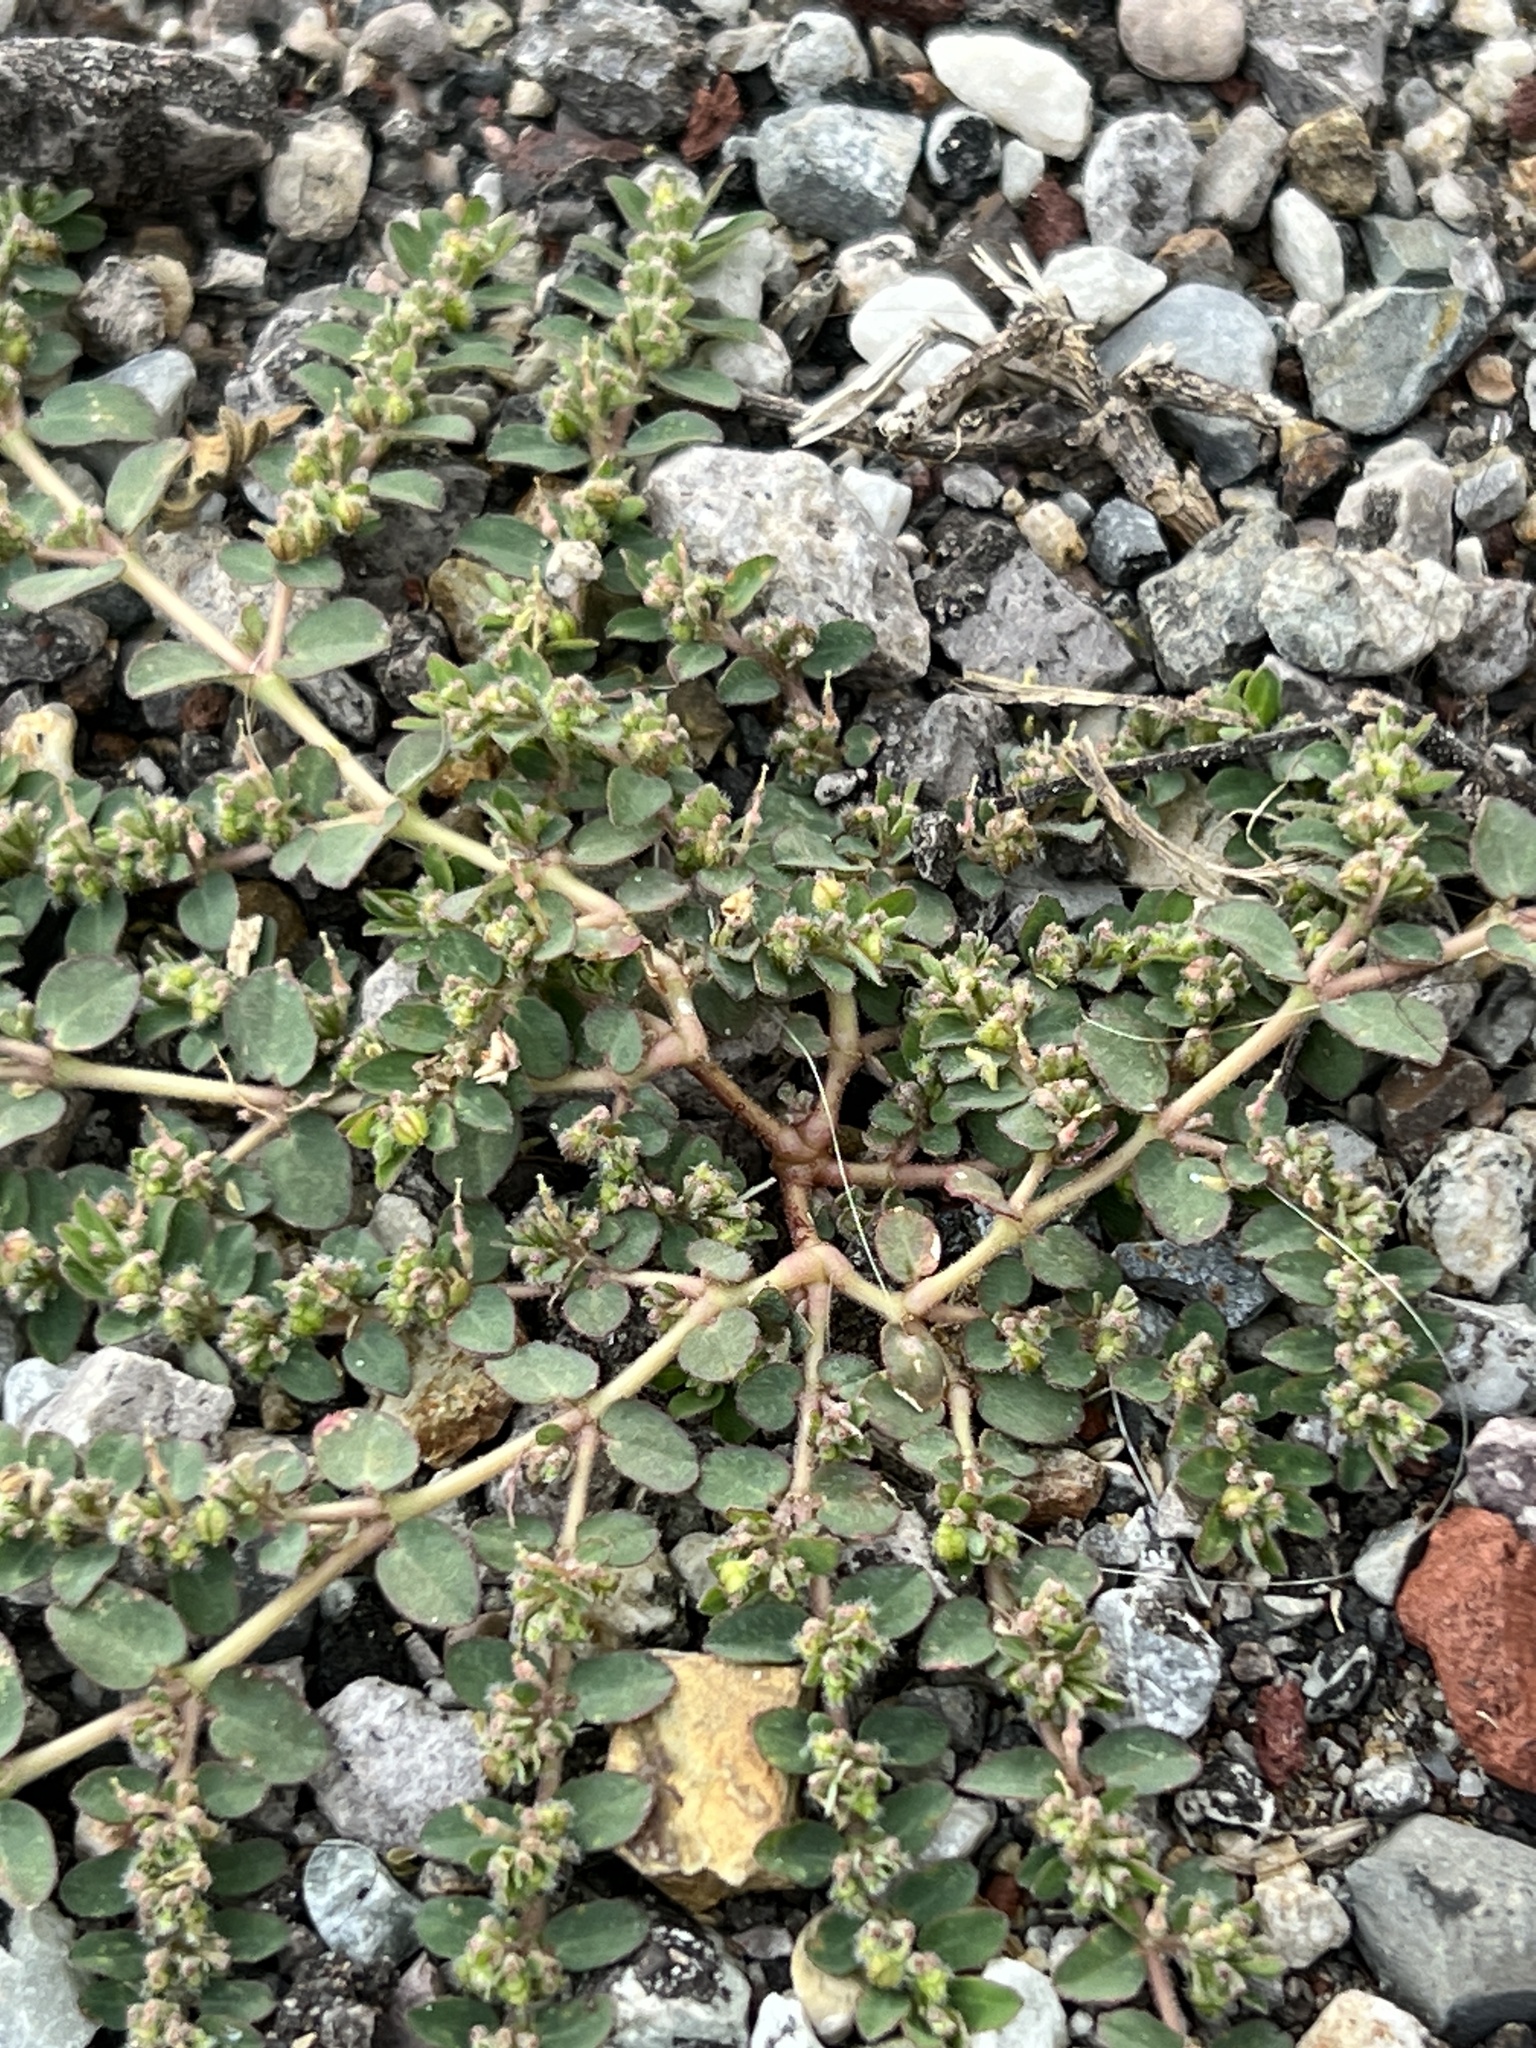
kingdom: Plantae
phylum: Tracheophyta
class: Magnoliopsida
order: Malpighiales
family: Euphorbiaceae
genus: Euphorbia
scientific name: Euphorbia prostrata
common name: Prostrate sandmat
